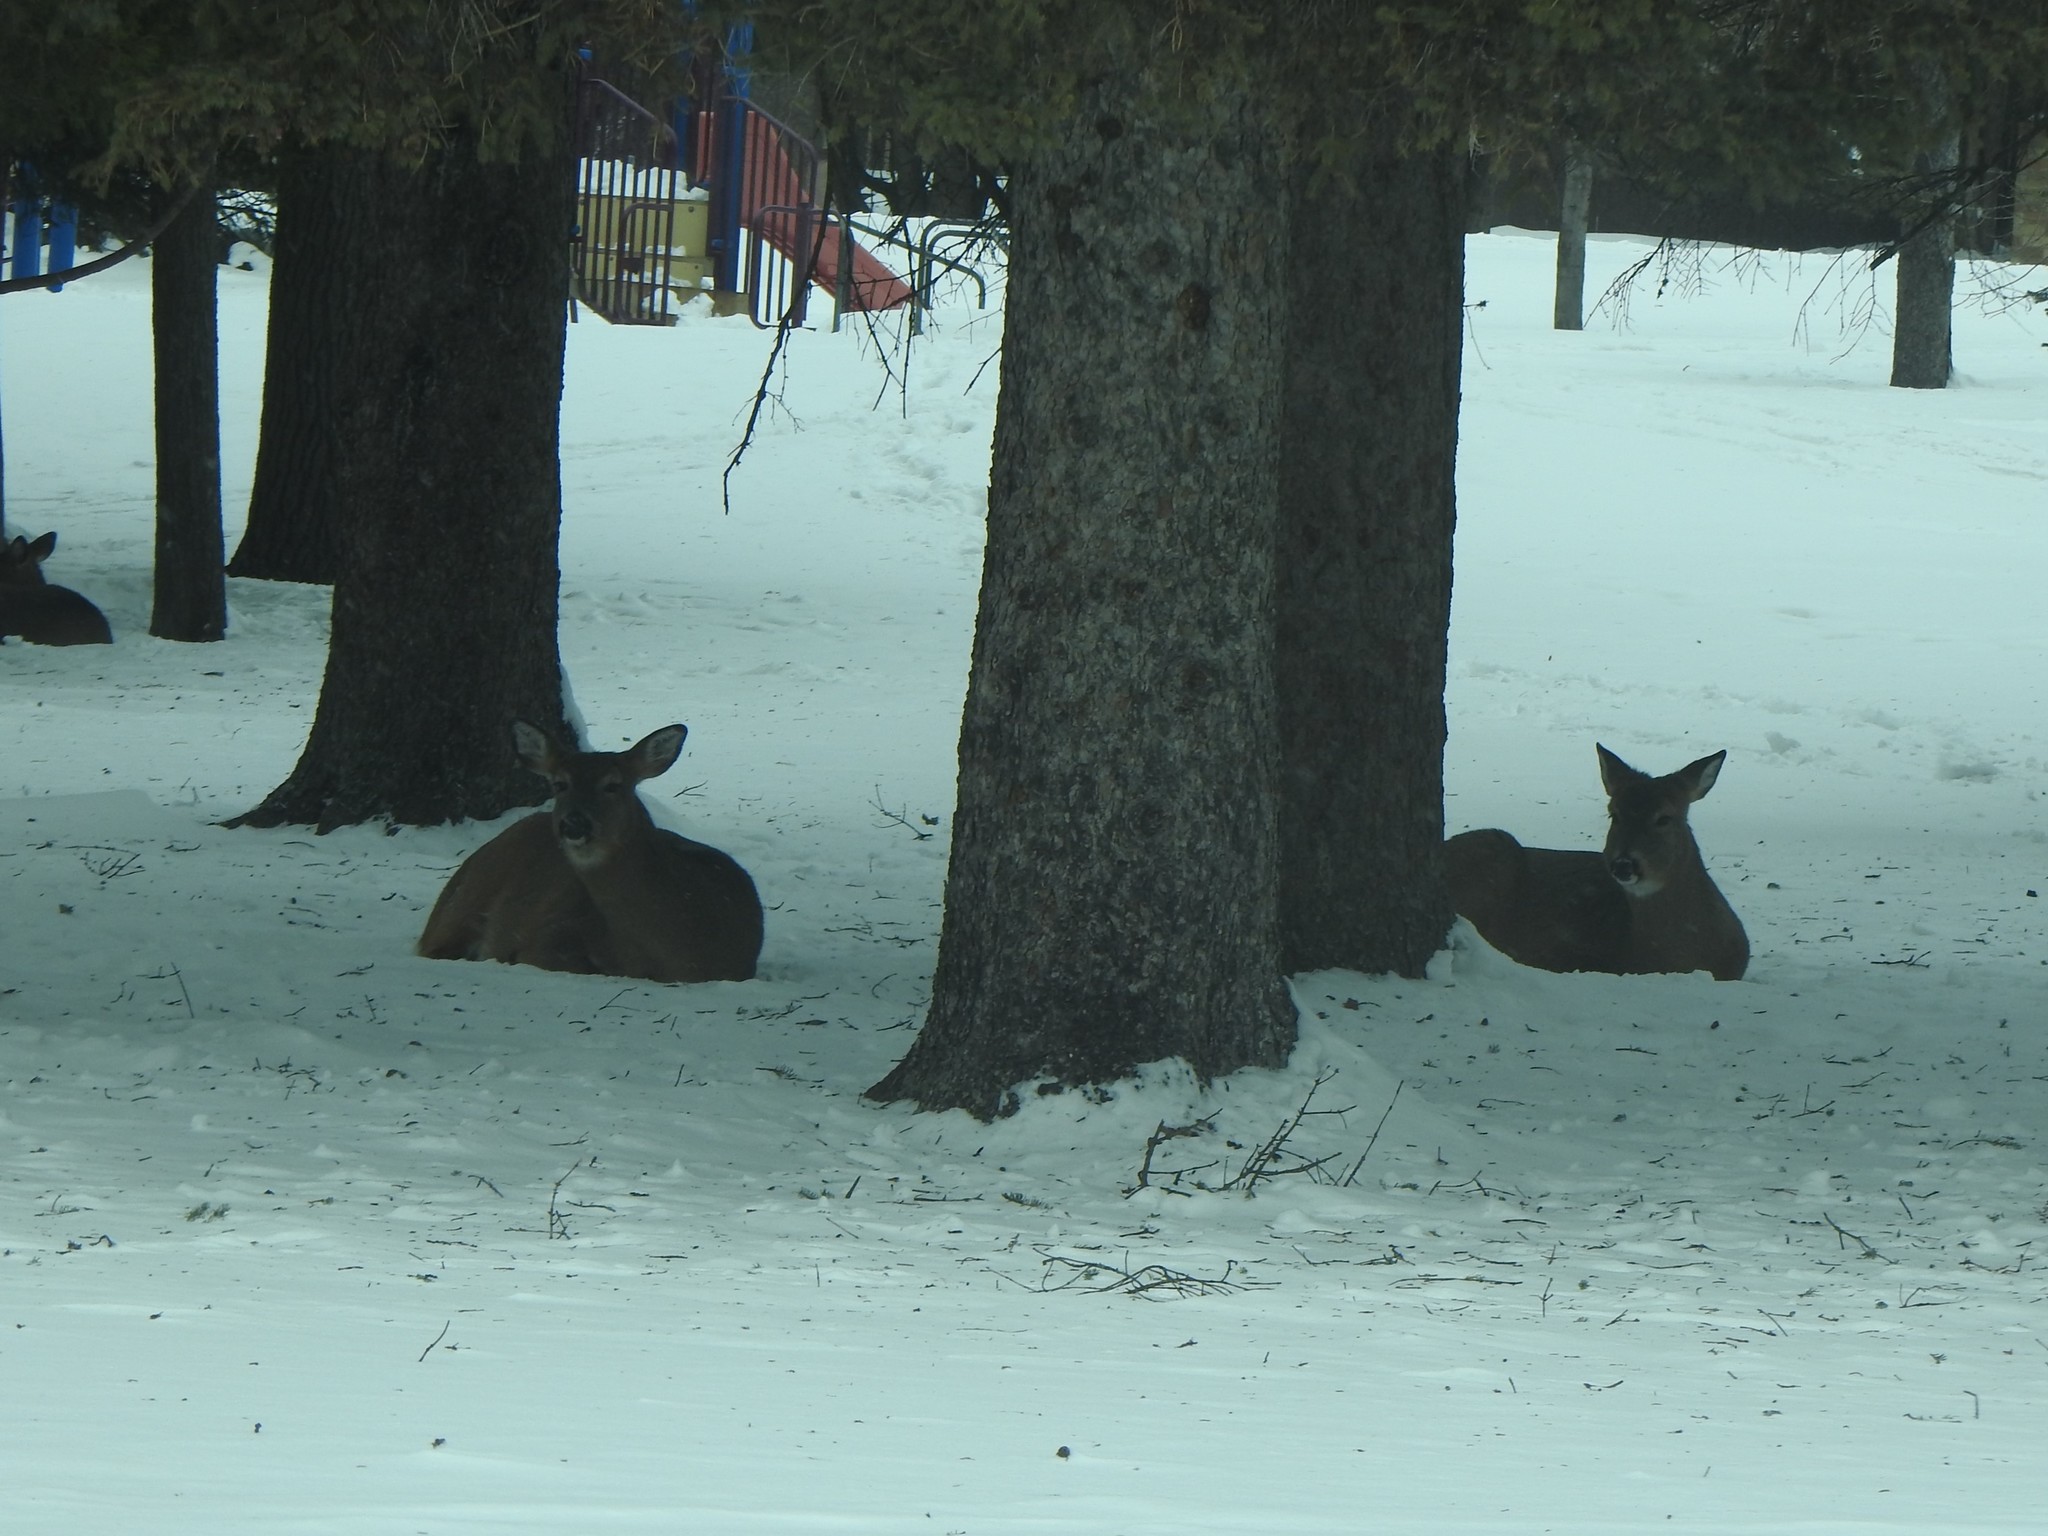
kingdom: Animalia
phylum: Chordata
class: Mammalia
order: Artiodactyla
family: Cervidae
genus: Odocoileus
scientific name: Odocoileus virginianus
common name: White-tailed deer
